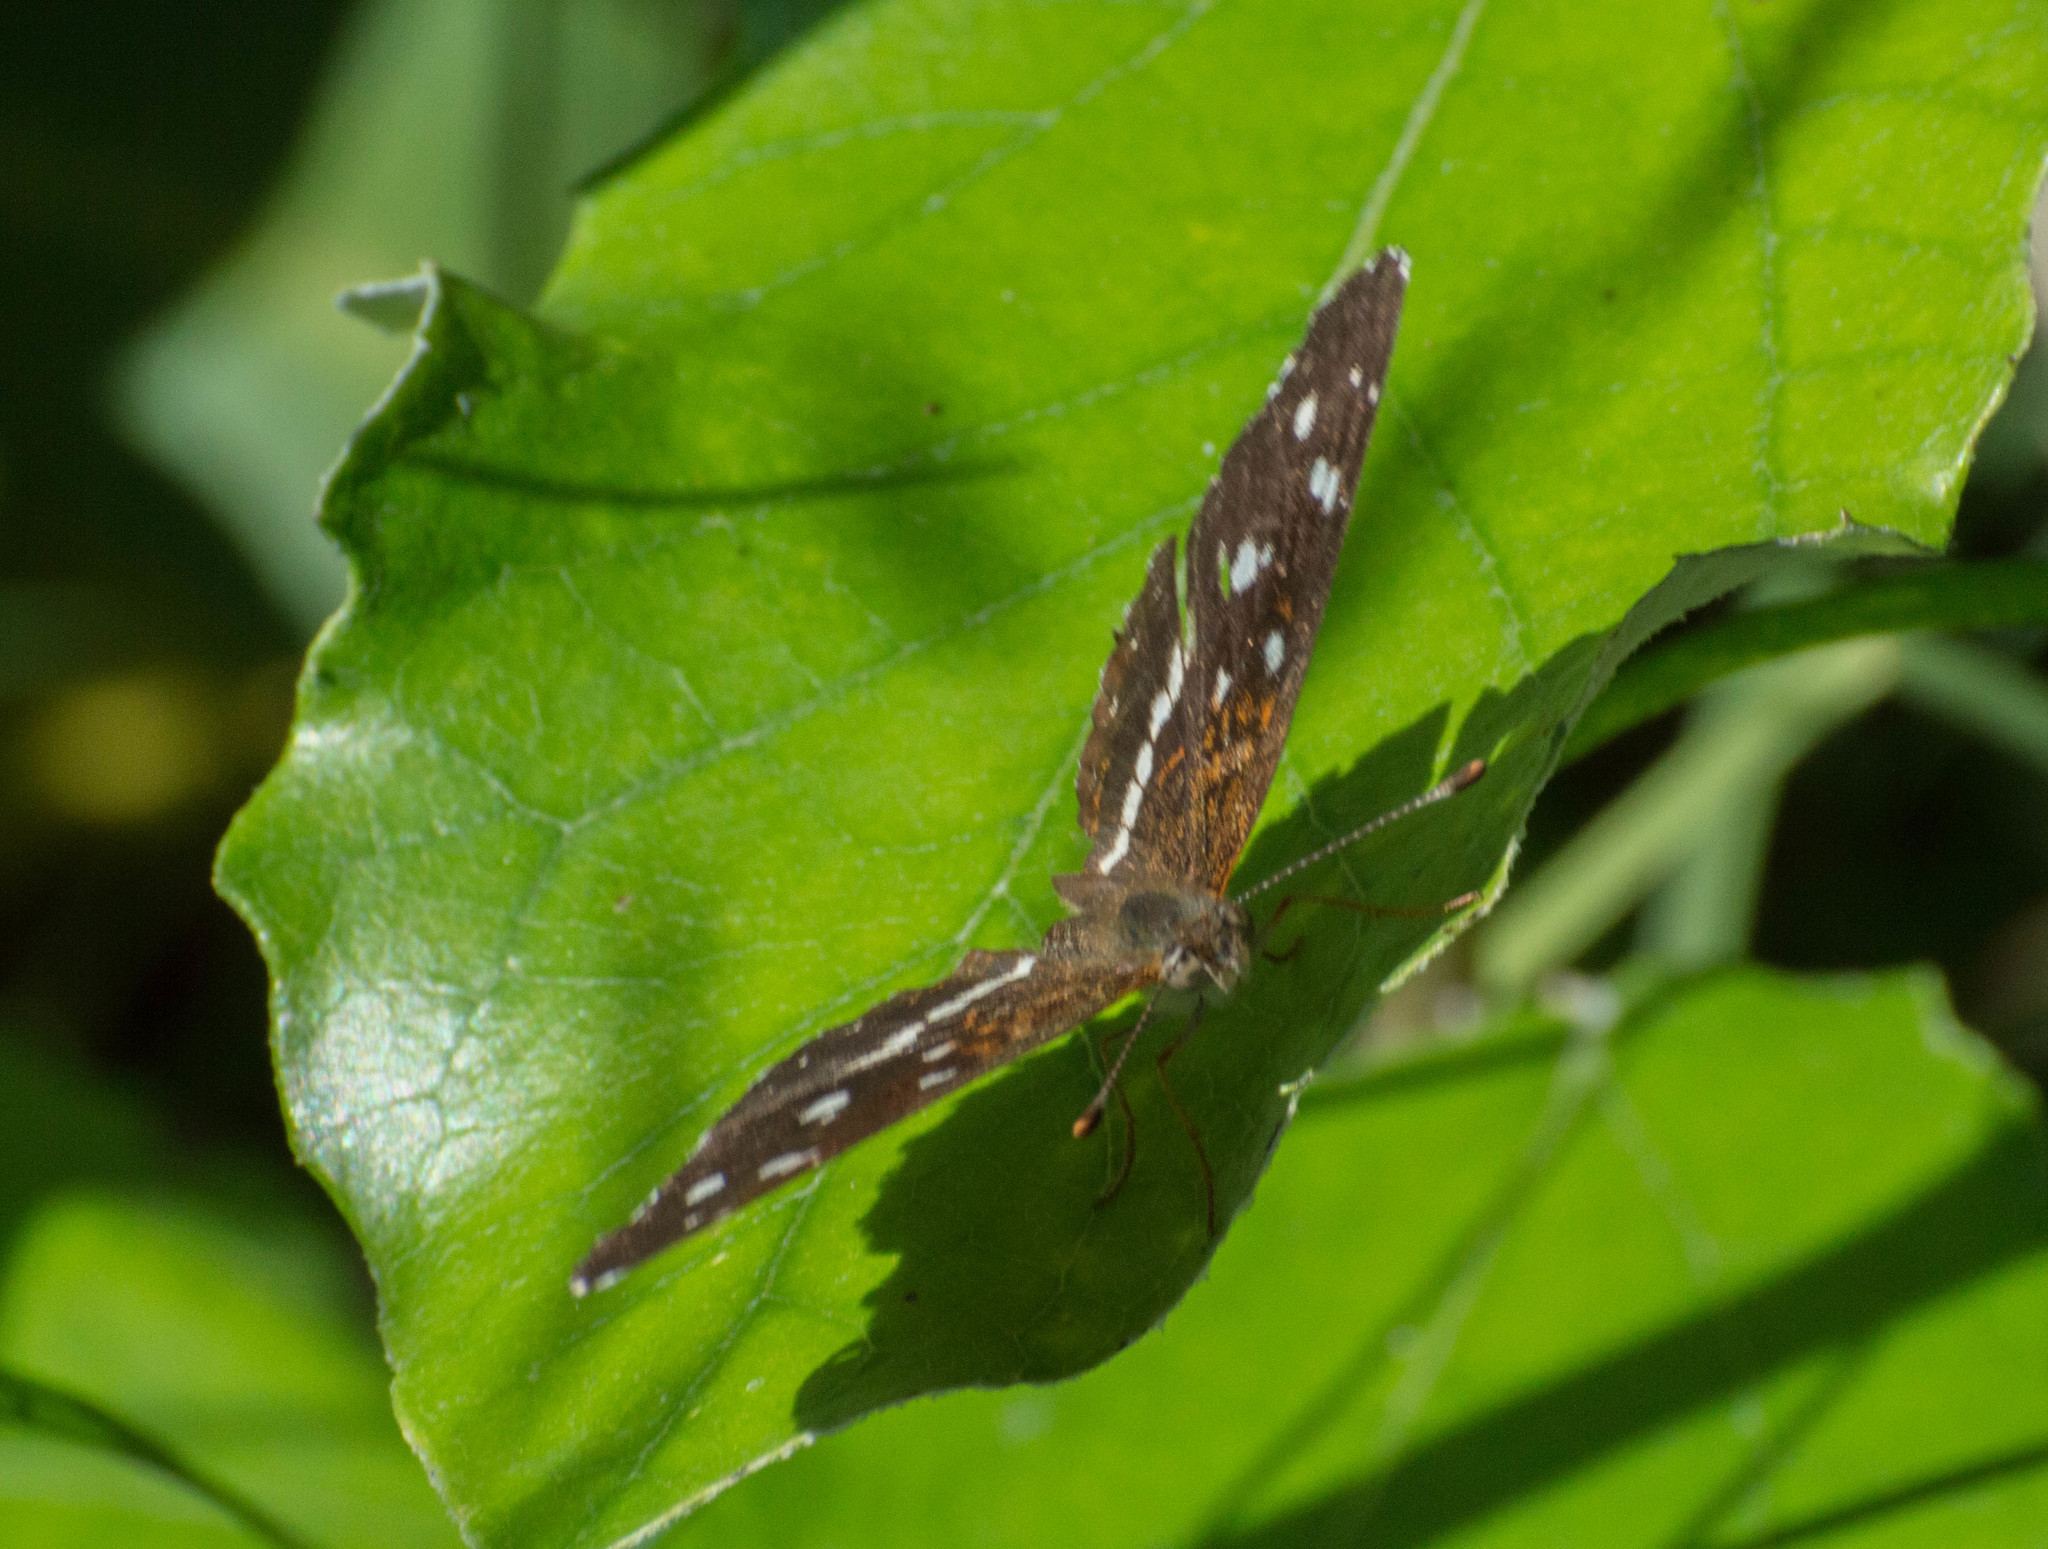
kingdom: Animalia
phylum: Arthropoda
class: Insecta
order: Lepidoptera
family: Nymphalidae
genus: Ortilia
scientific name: Ortilia ithra
